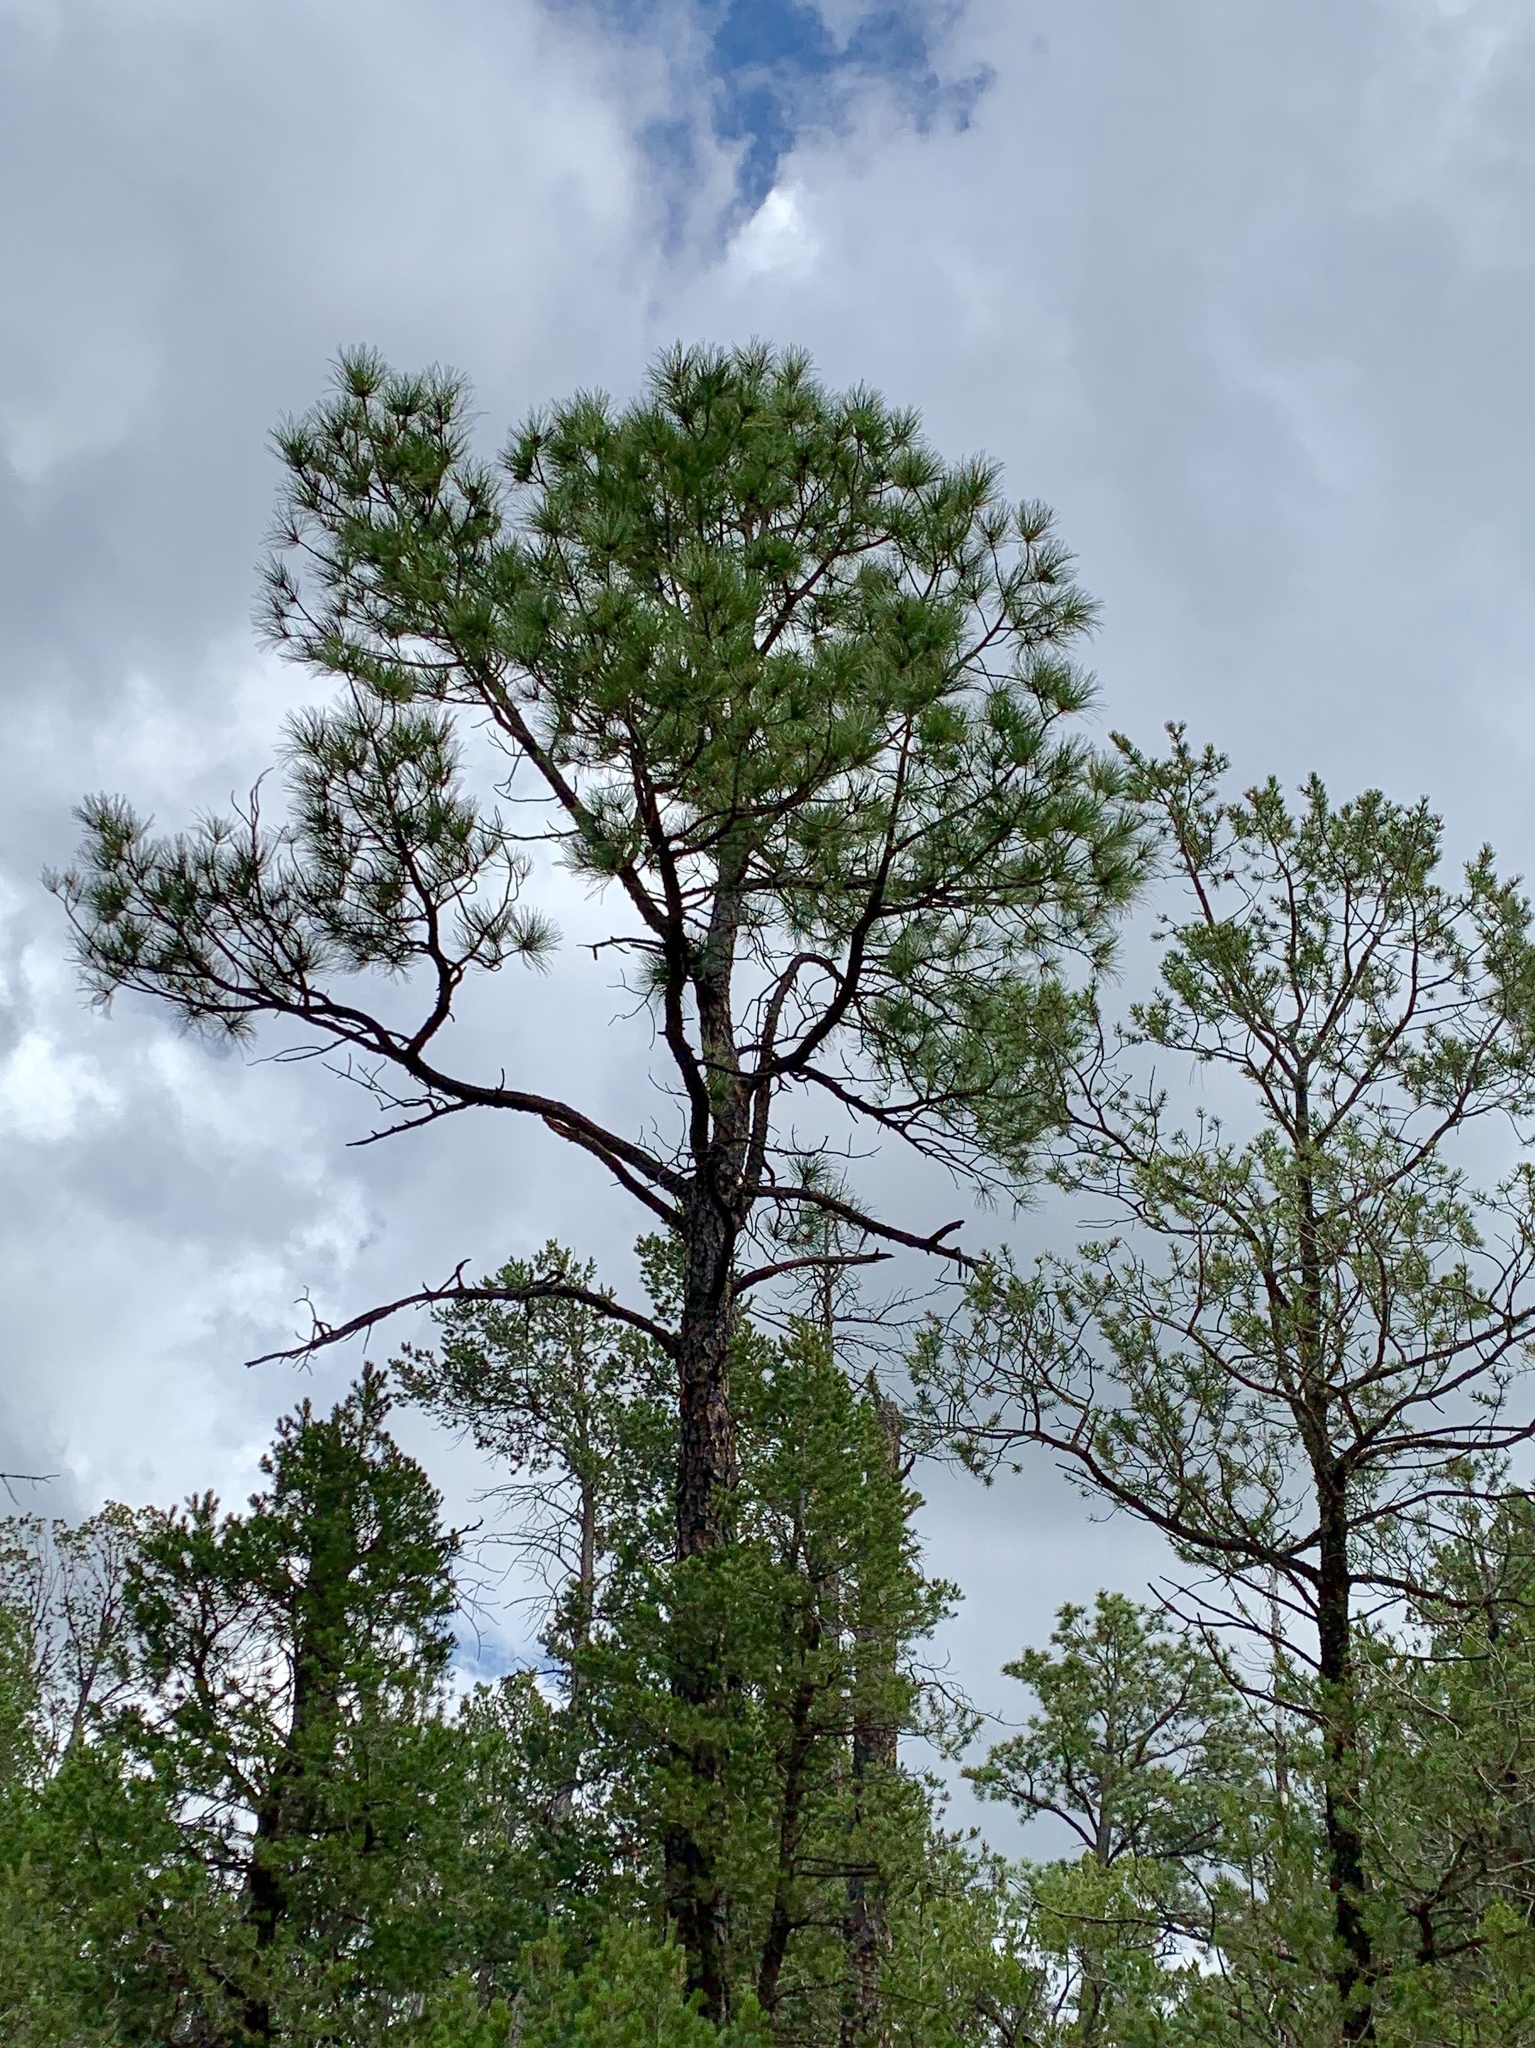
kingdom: Plantae
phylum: Tracheophyta
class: Pinopsida
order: Pinales
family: Pinaceae
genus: Pinus
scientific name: Pinus ponderosa
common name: Western yellow-pine
